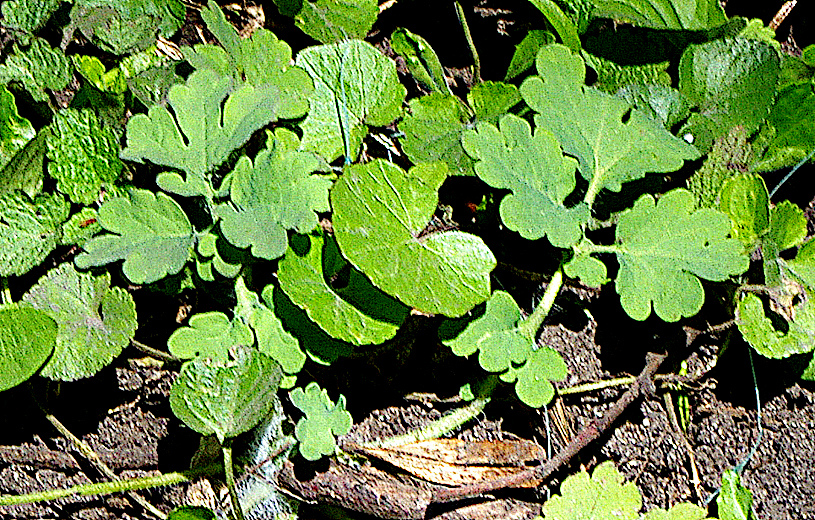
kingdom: Plantae
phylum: Tracheophyta
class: Magnoliopsida
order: Ranunculales
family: Papaveraceae
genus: Chelidonium
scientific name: Chelidonium majus
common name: Greater celandine
